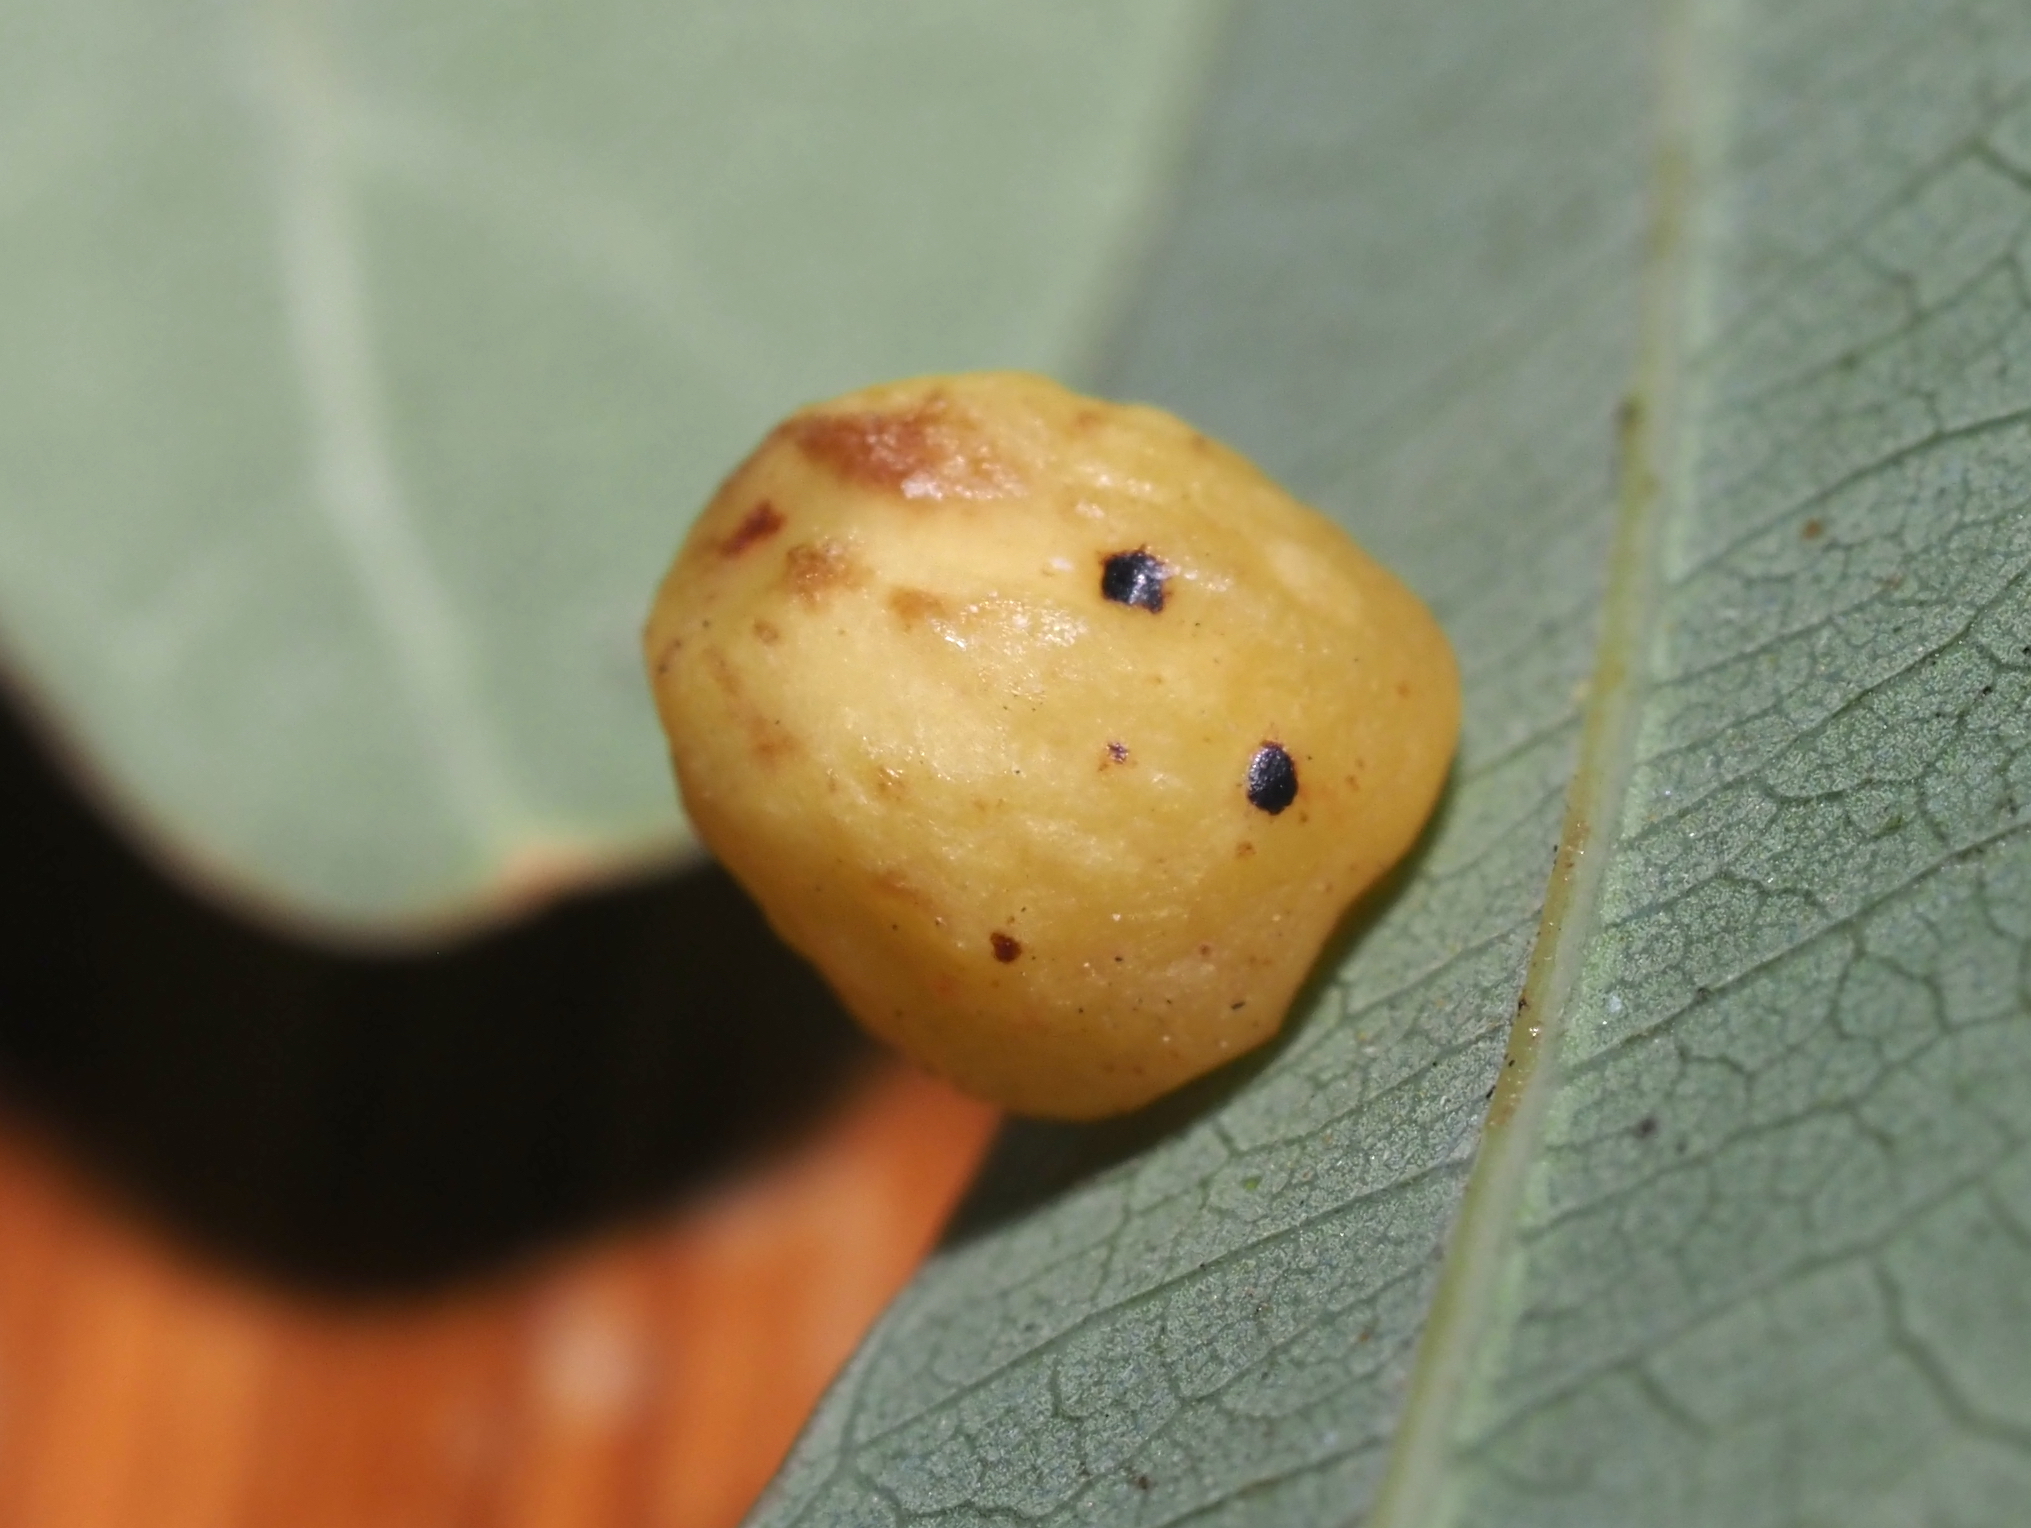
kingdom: Animalia
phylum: Arthropoda
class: Insecta
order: Hymenoptera
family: Cynipidae
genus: Andricus
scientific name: Andricus
